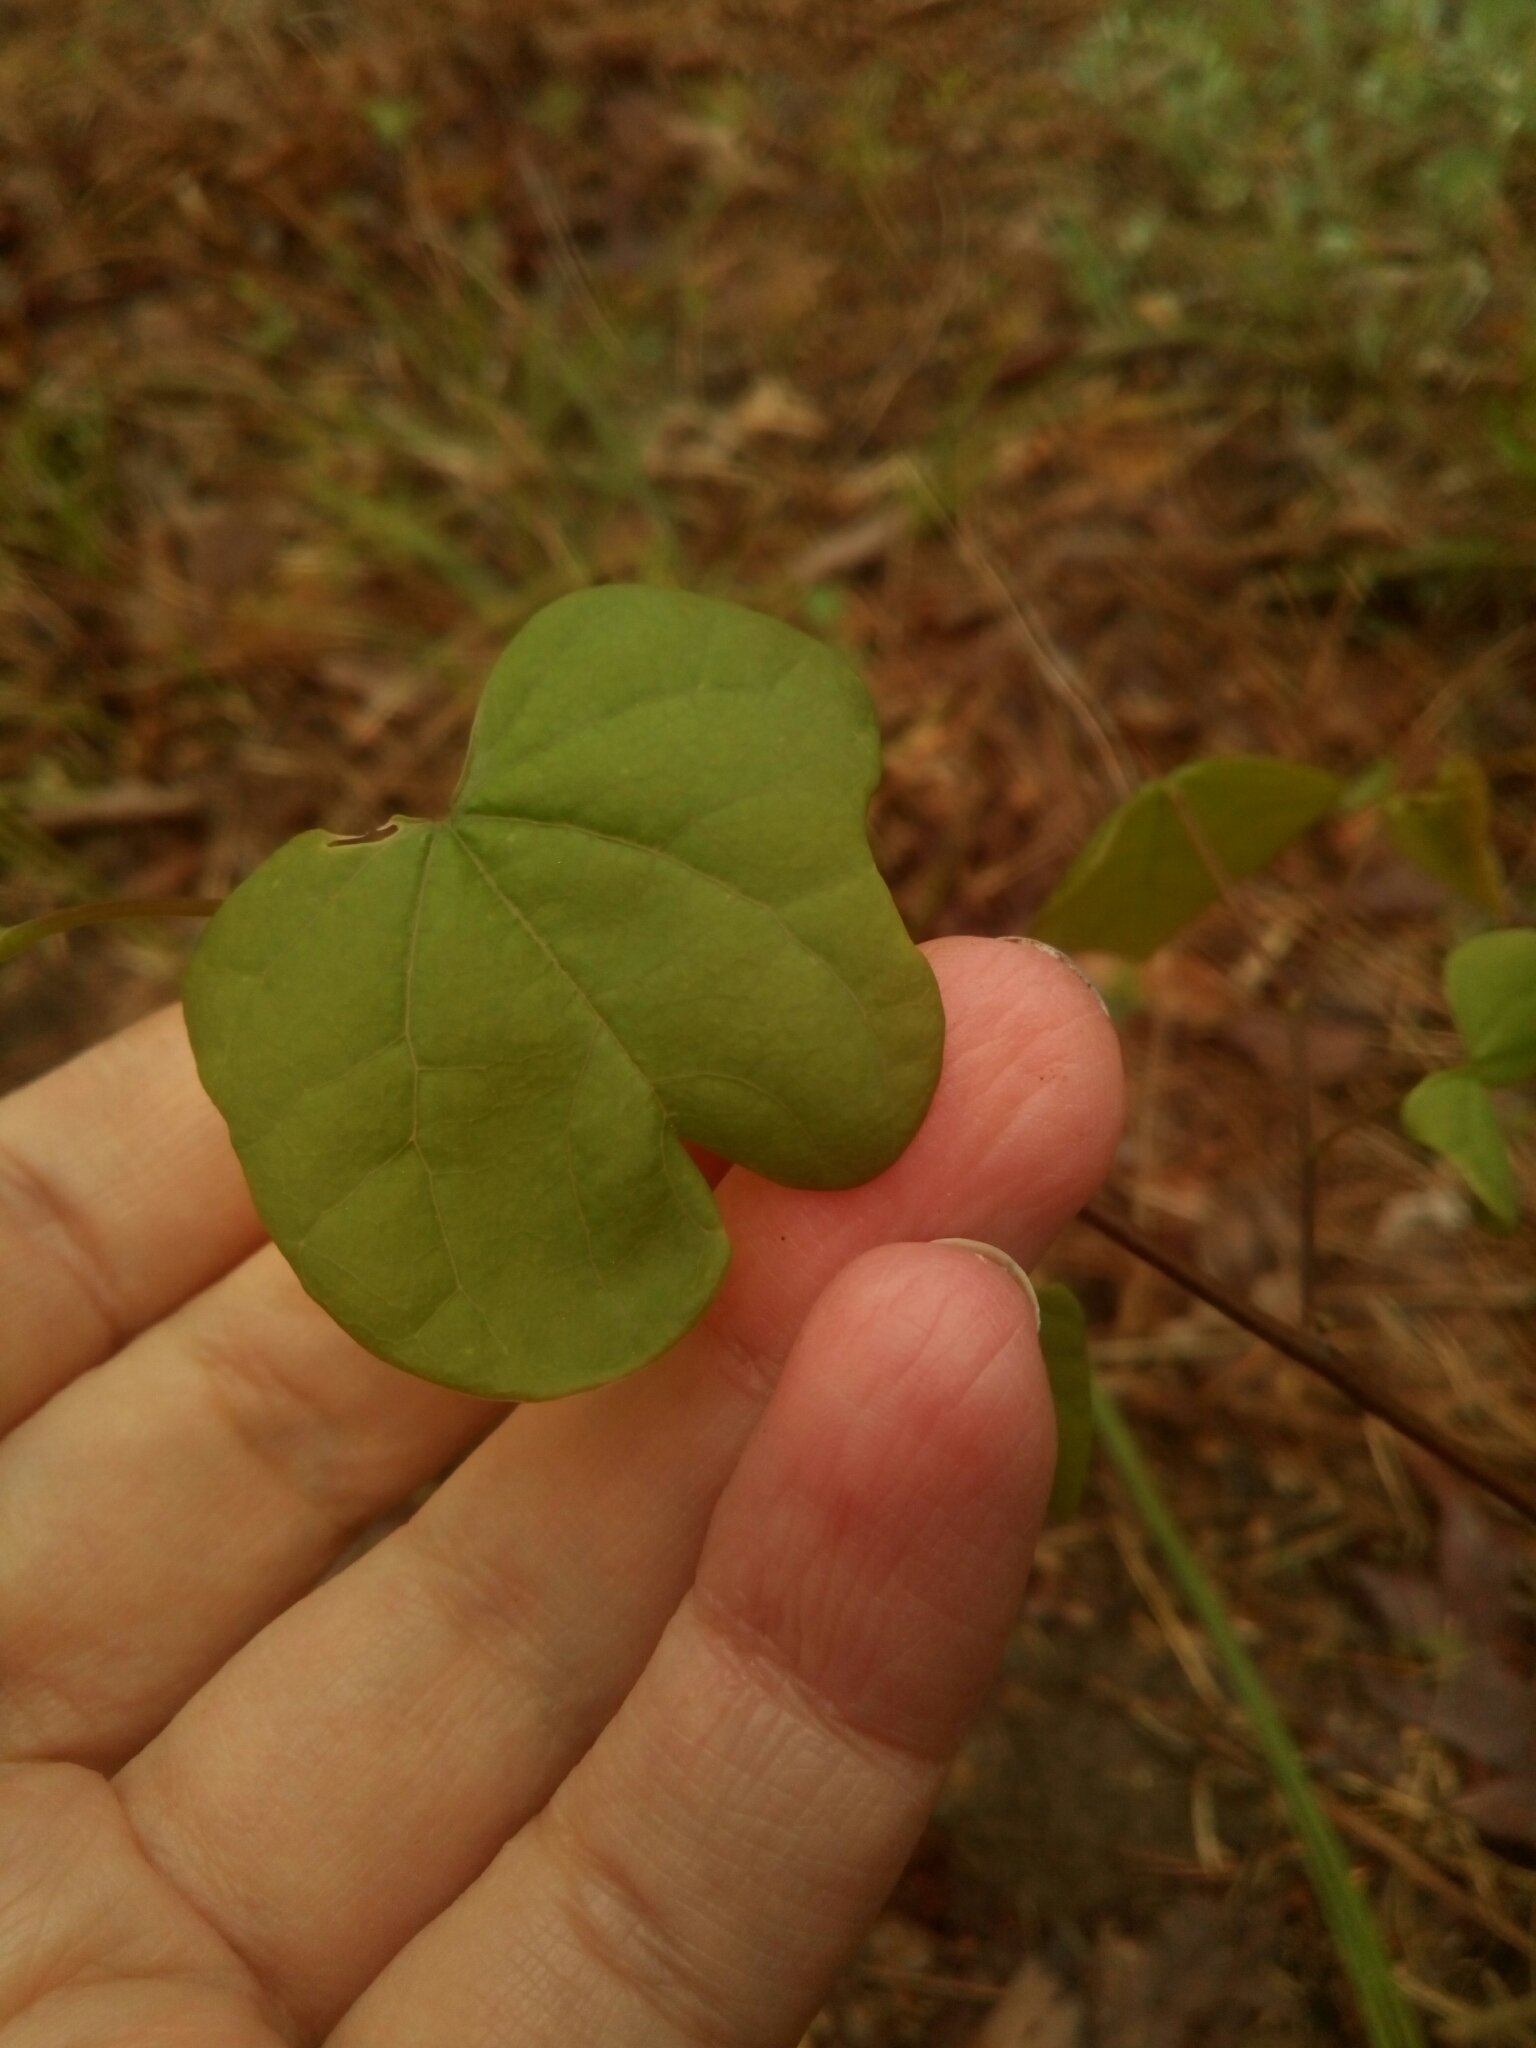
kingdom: Plantae
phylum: Tracheophyta
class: Magnoliopsida
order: Fabales
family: Fabaceae
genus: Cercis
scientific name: Cercis canadensis
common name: Eastern redbud
